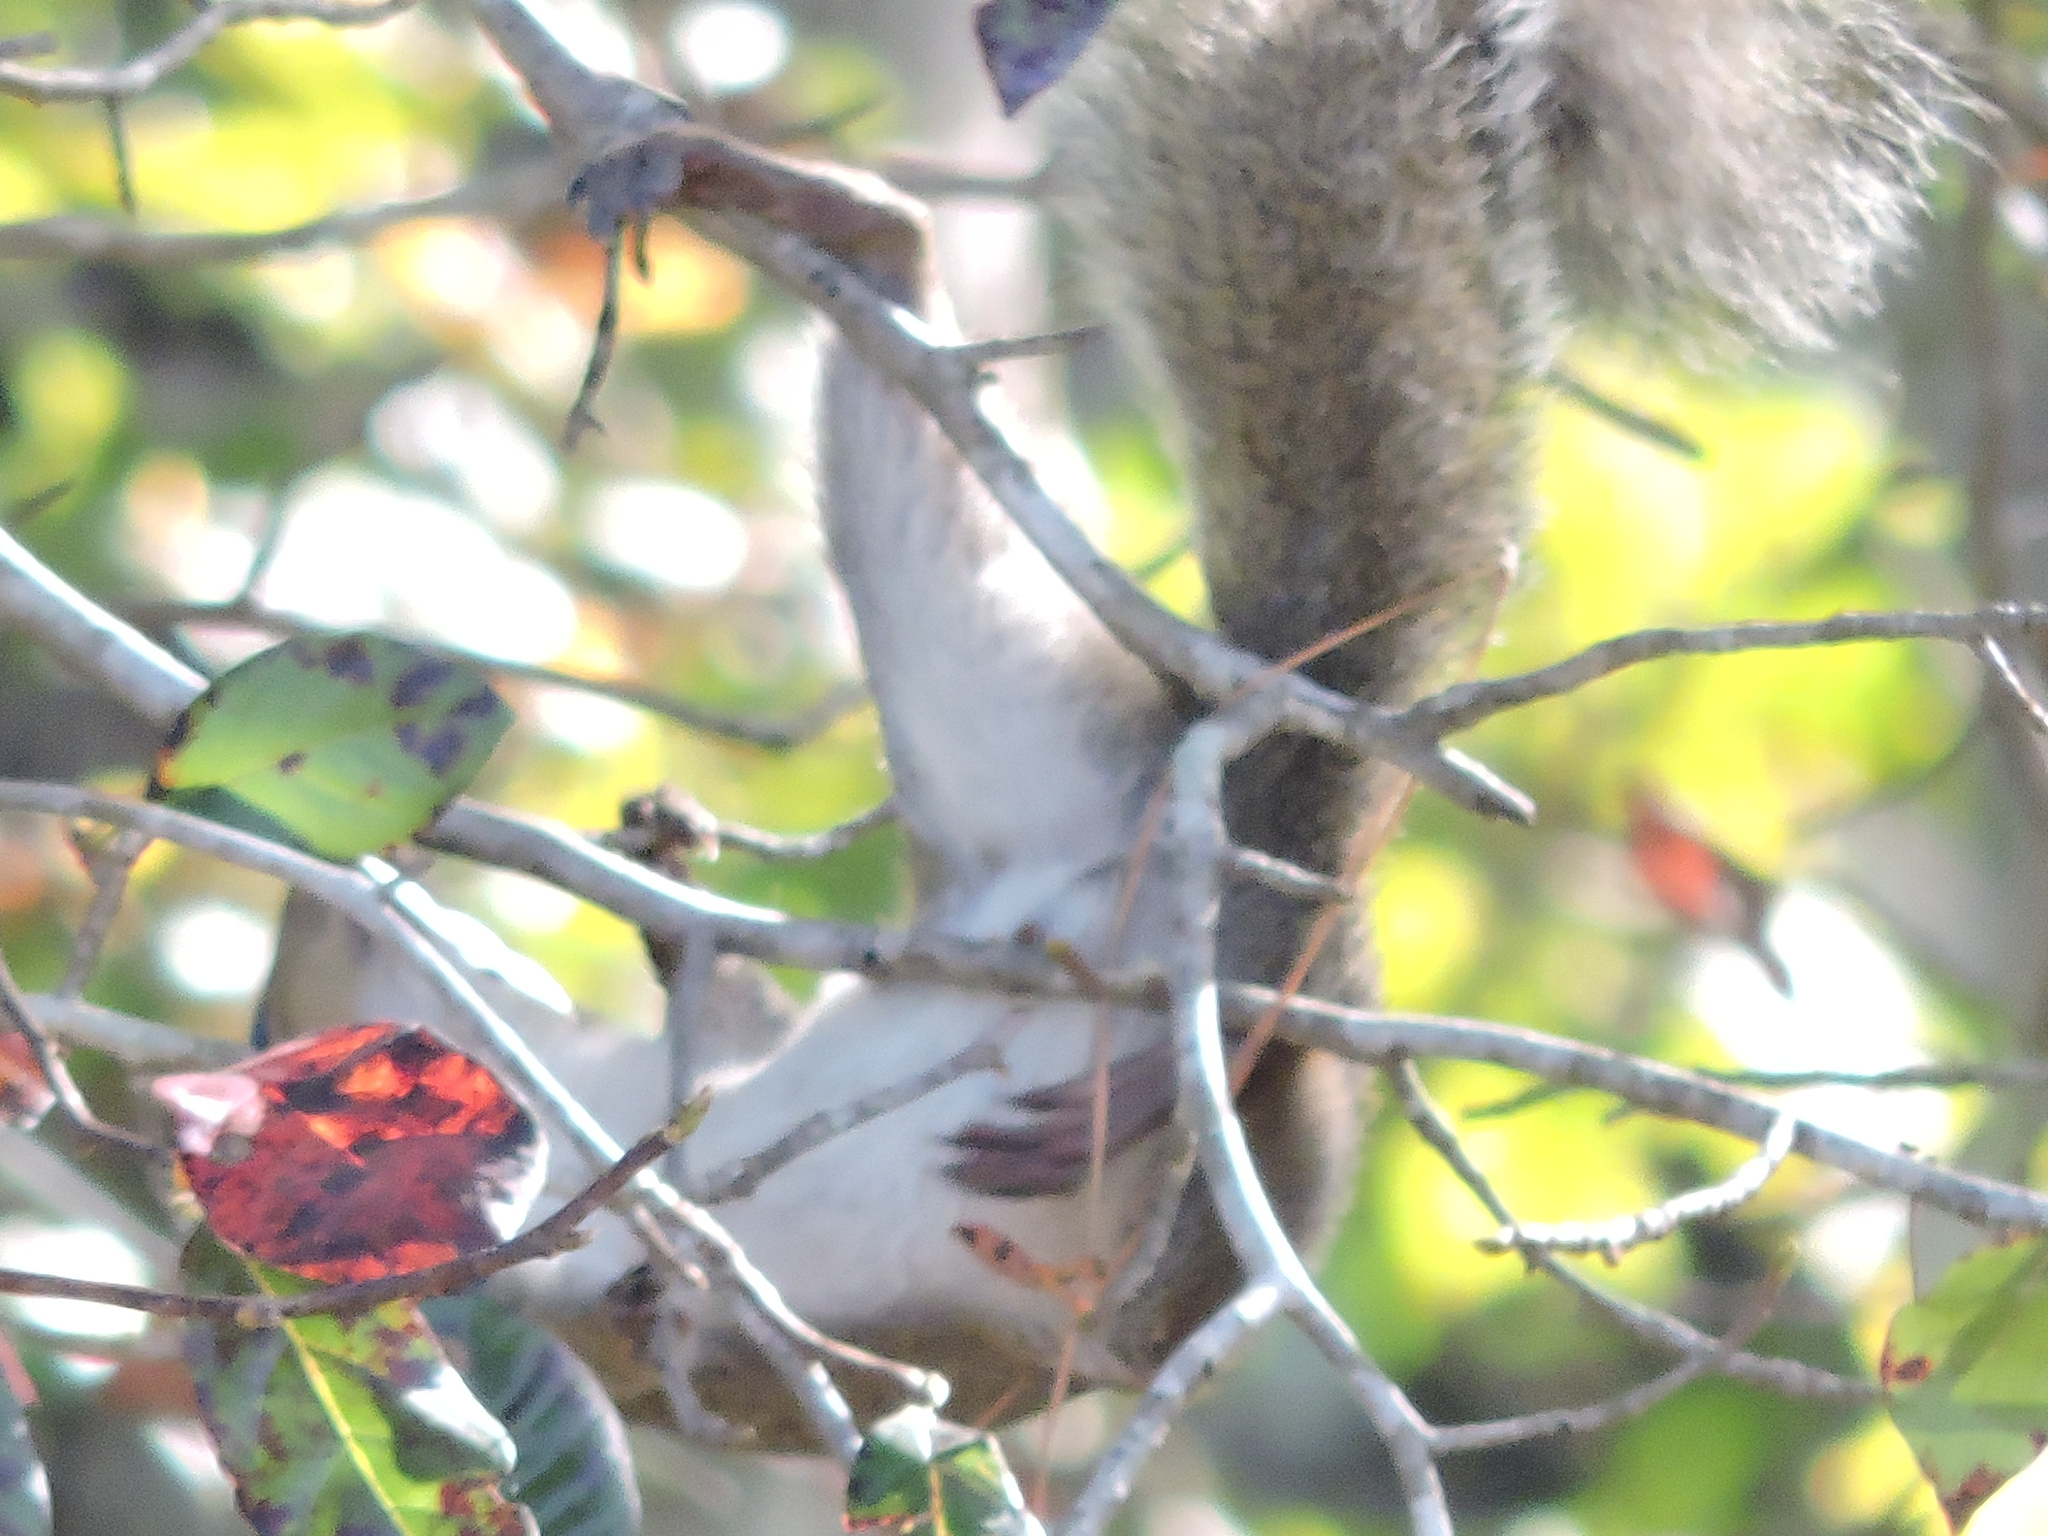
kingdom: Animalia
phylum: Chordata
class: Mammalia
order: Rodentia
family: Sciuridae
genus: Sciurus
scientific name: Sciurus carolinensis
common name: Eastern gray squirrel
